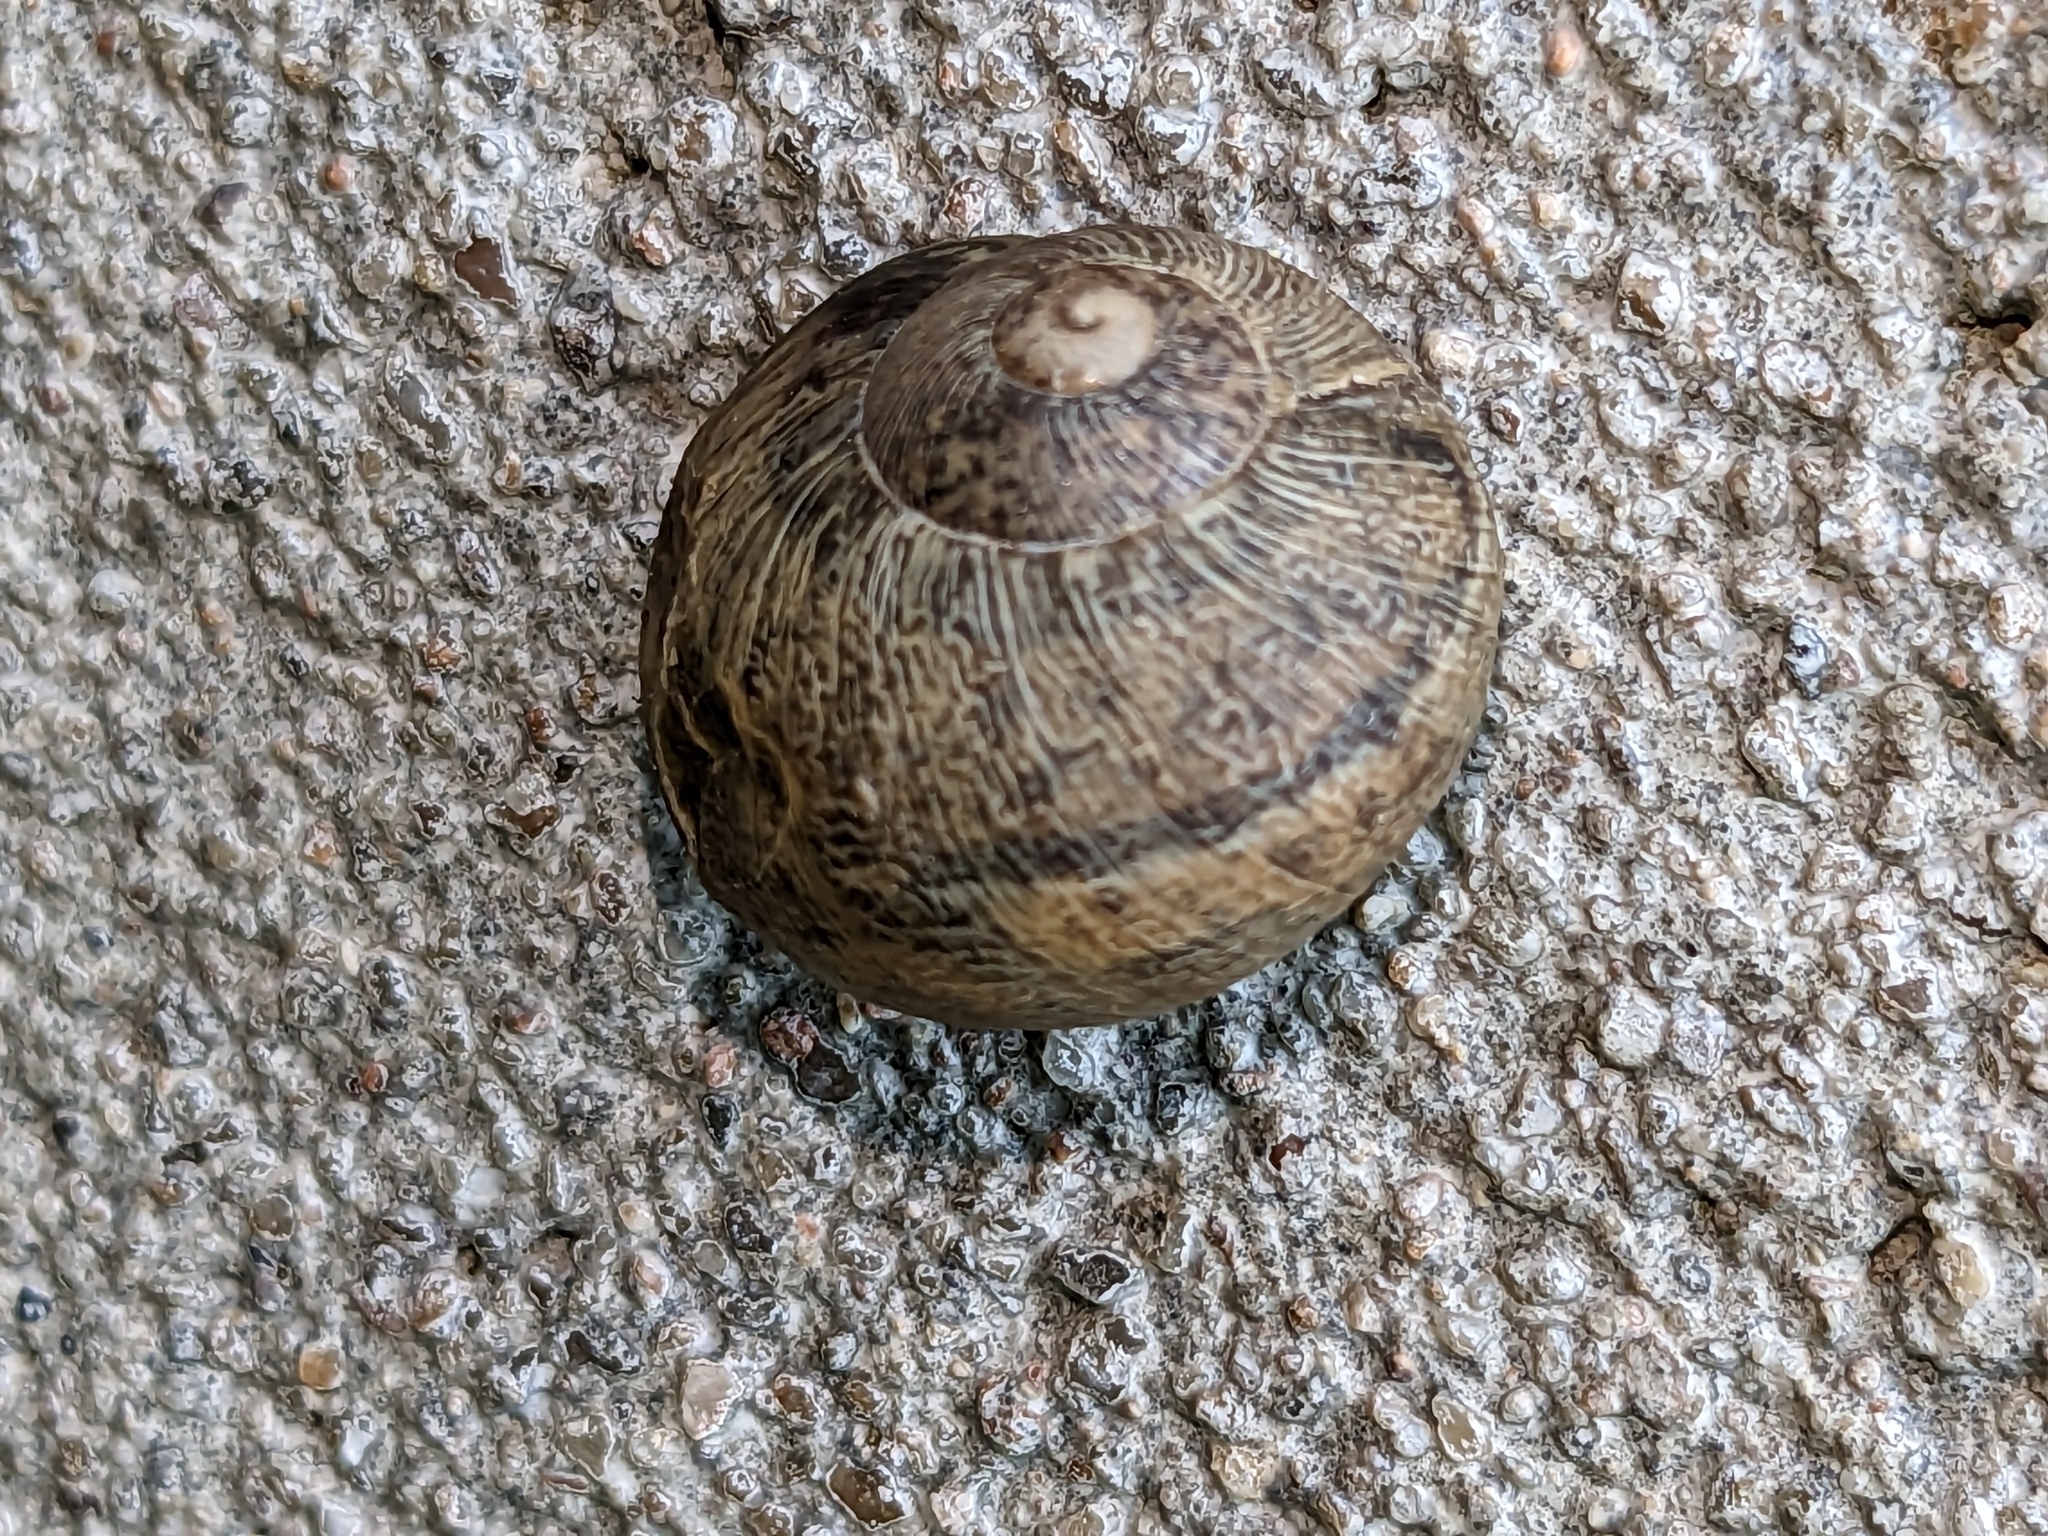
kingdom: Animalia
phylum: Mollusca
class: Gastropoda
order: Stylommatophora
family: Helicidae
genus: Cornu
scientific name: Cornu aspersum
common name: Brown garden snail
